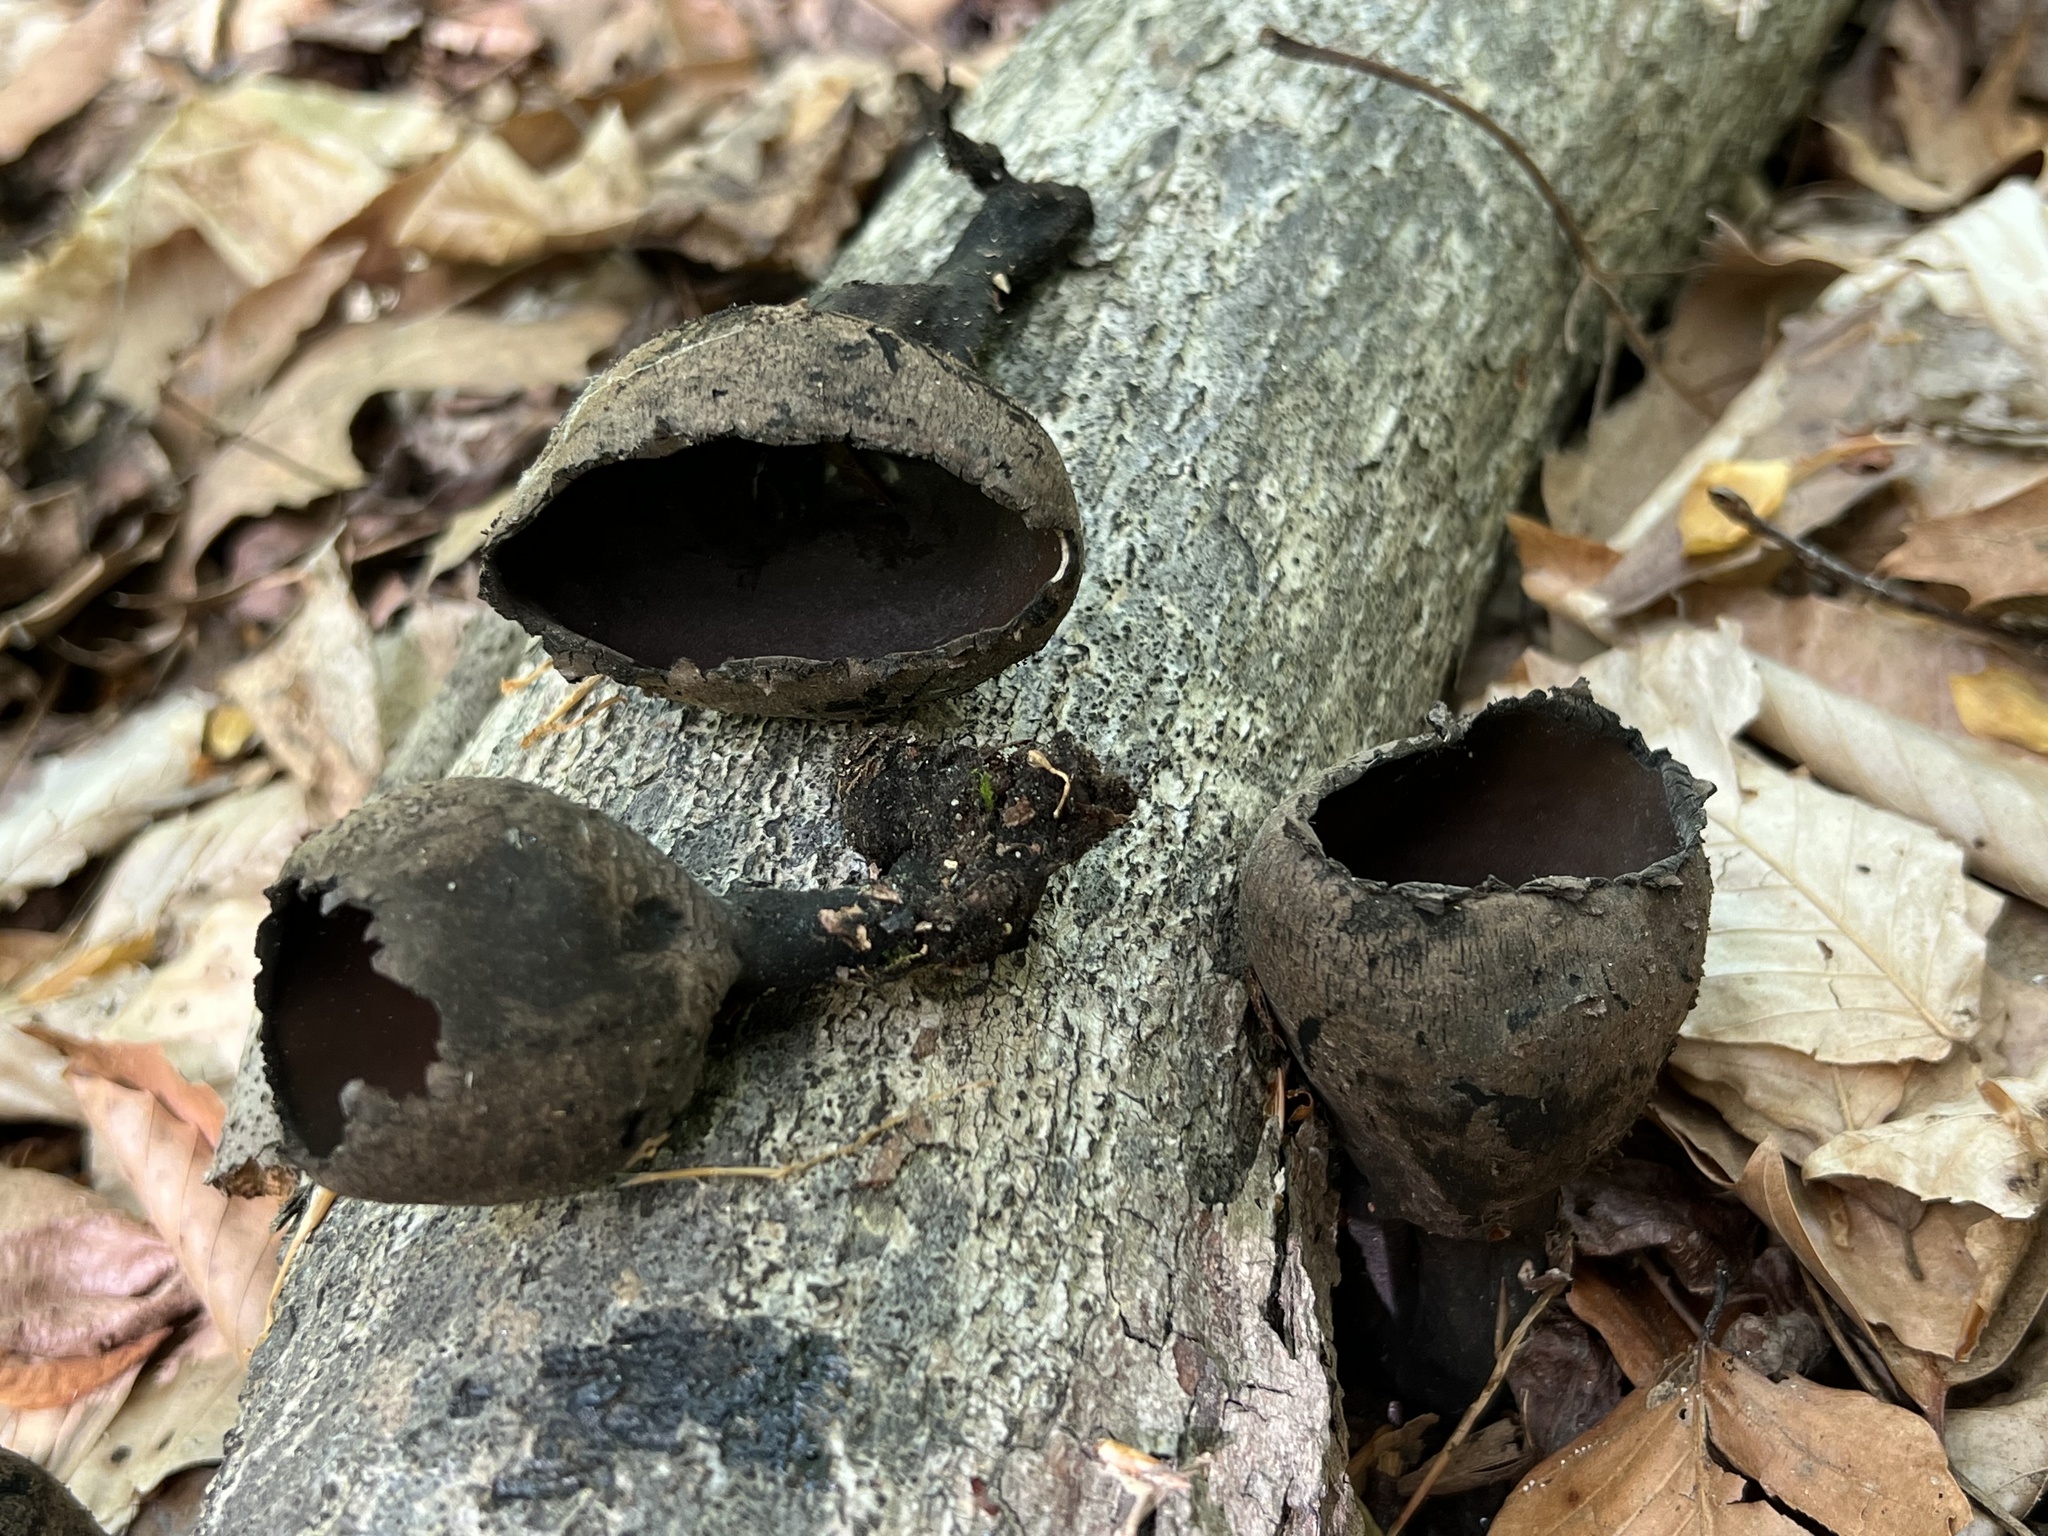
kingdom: Fungi
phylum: Ascomycota
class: Pezizomycetes
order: Pezizales
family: Sarcosomataceae
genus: Urnula
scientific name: Urnula craterium
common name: Devil's urn
